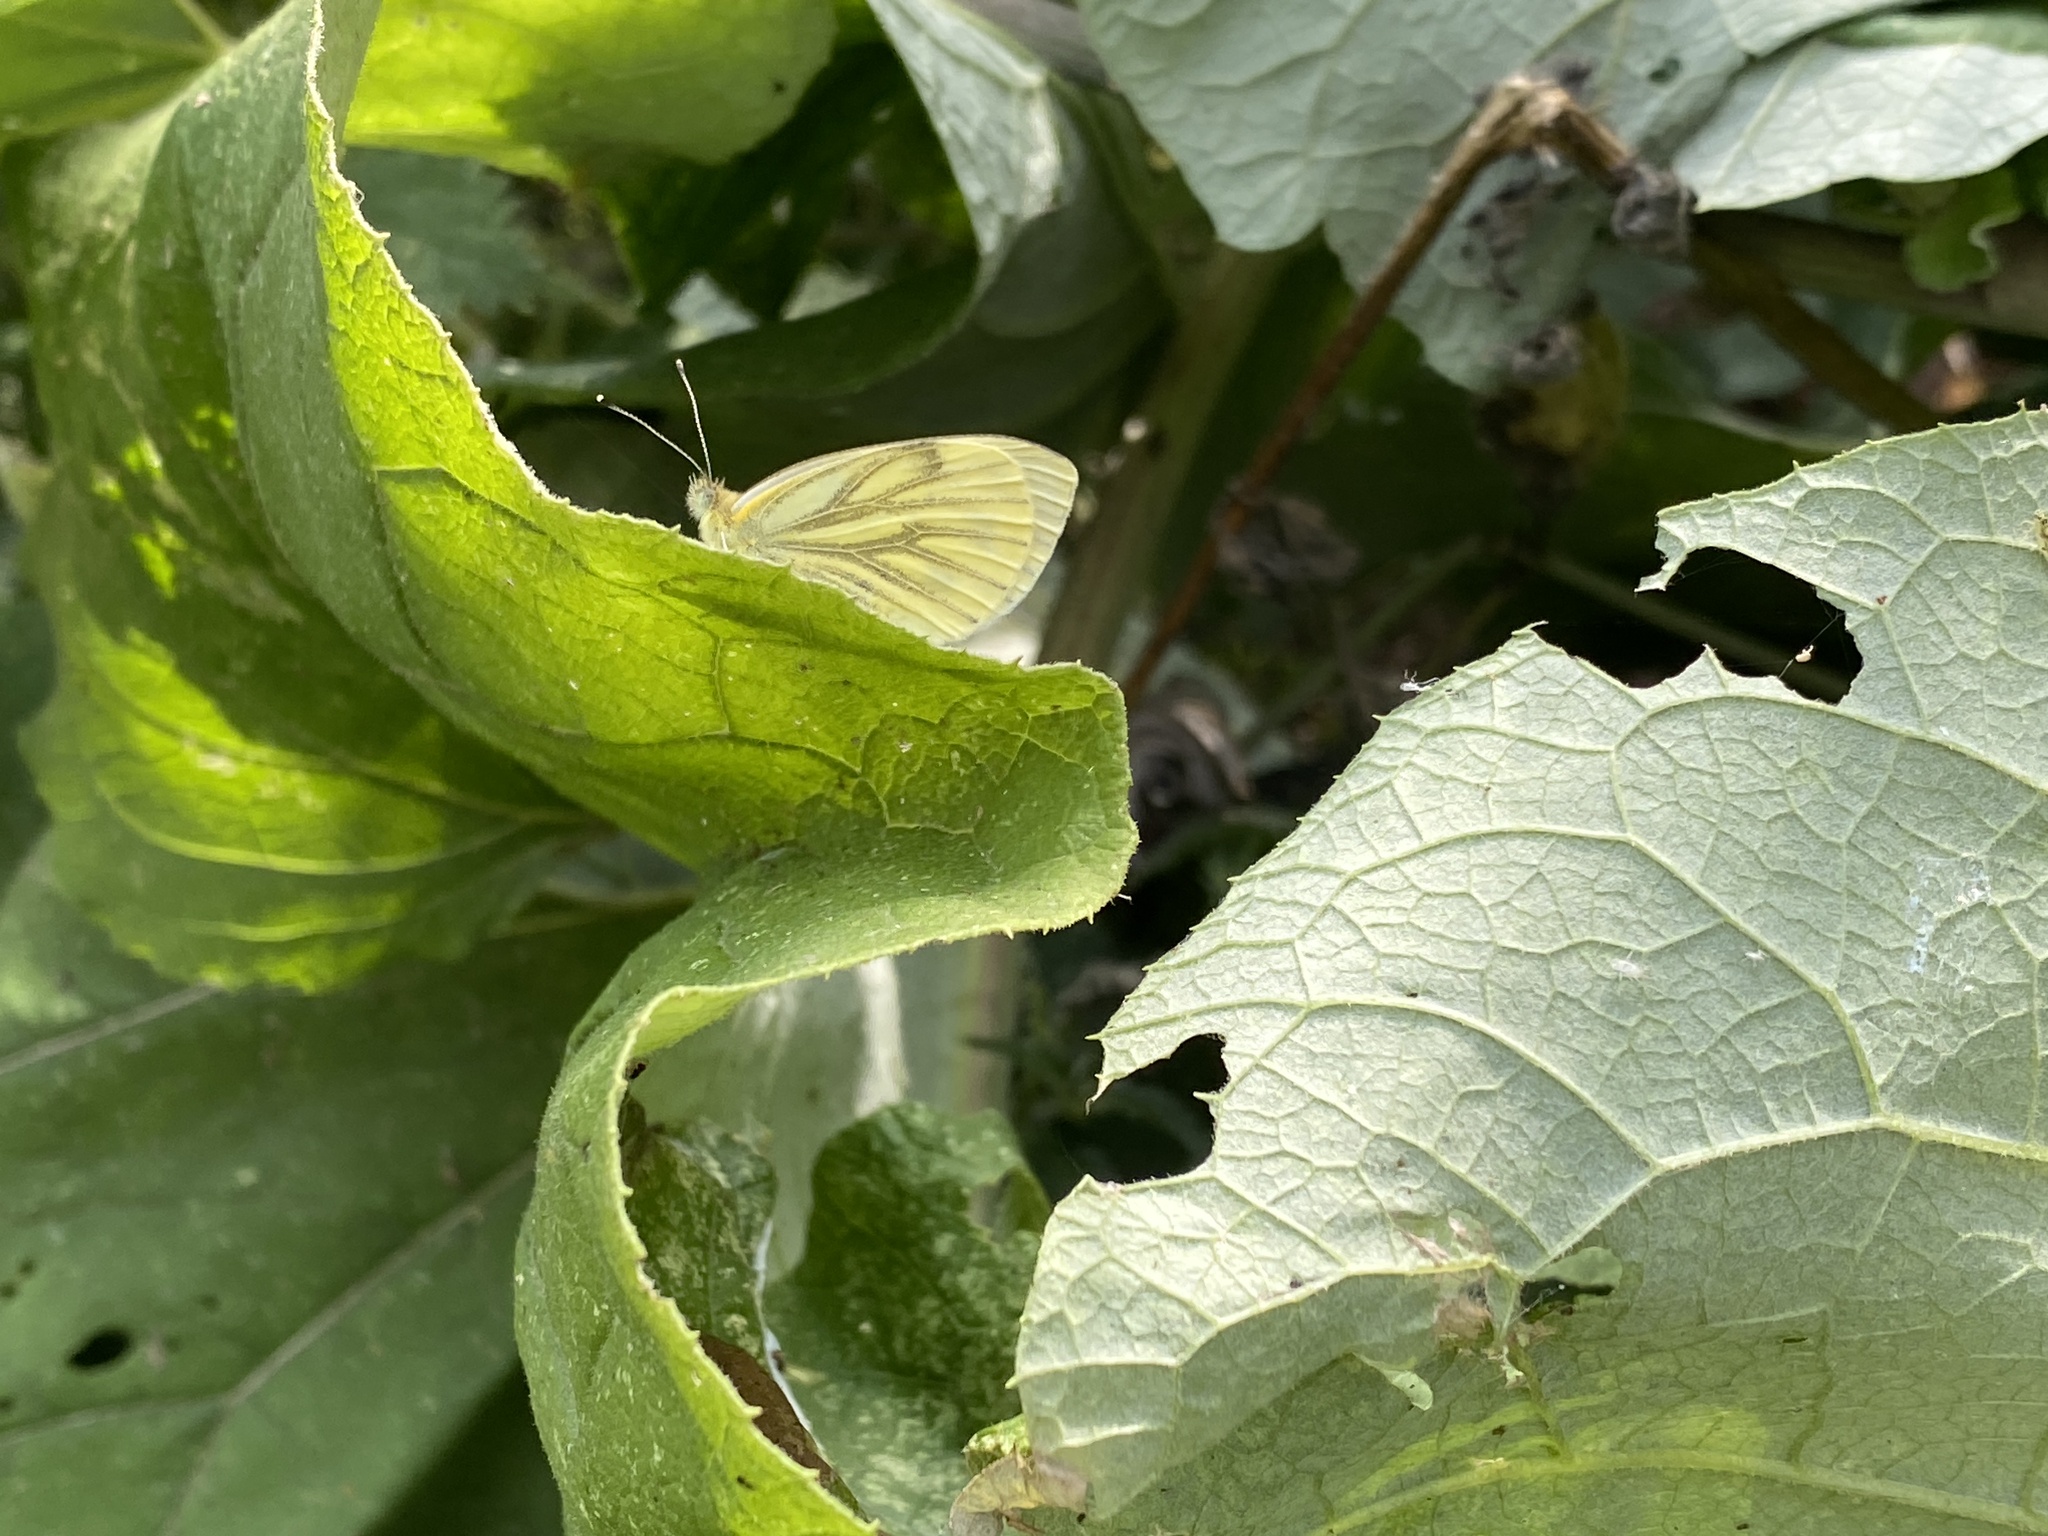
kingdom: Animalia
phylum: Arthropoda
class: Insecta
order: Lepidoptera
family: Pieridae
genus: Pieris
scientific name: Pieris napi
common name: Green-veined white
